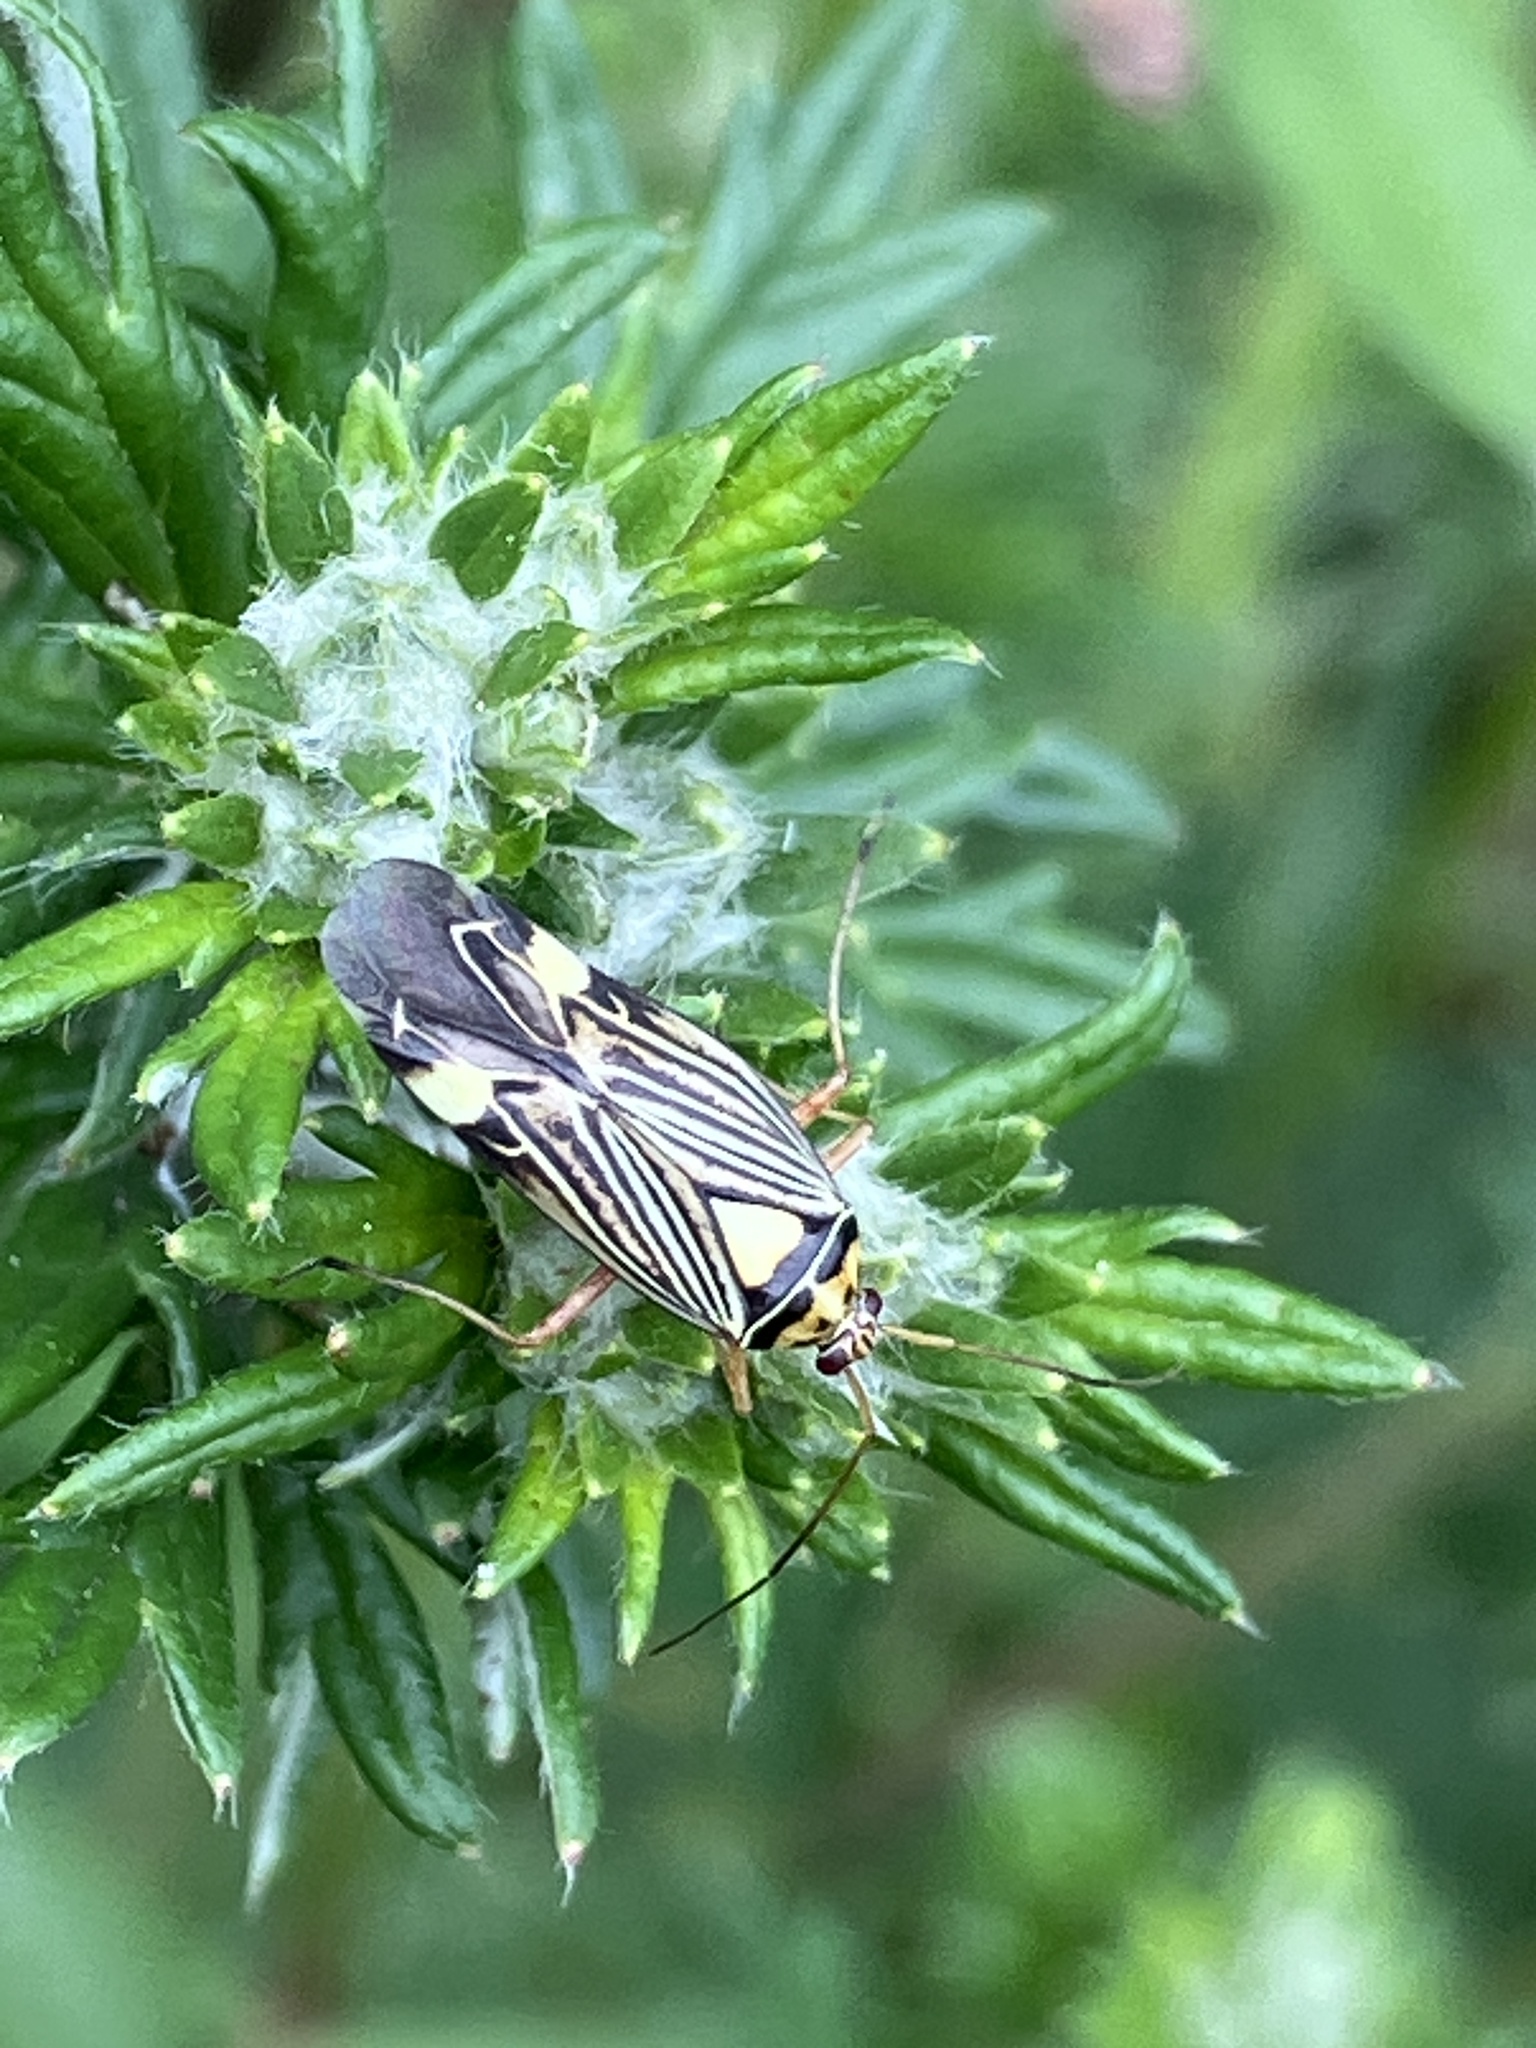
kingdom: Animalia
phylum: Arthropoda
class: Insecta
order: Hemiptera
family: Miridae
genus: Rhabdomiris
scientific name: Rhabdomiris striatellus
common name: Plant bug
